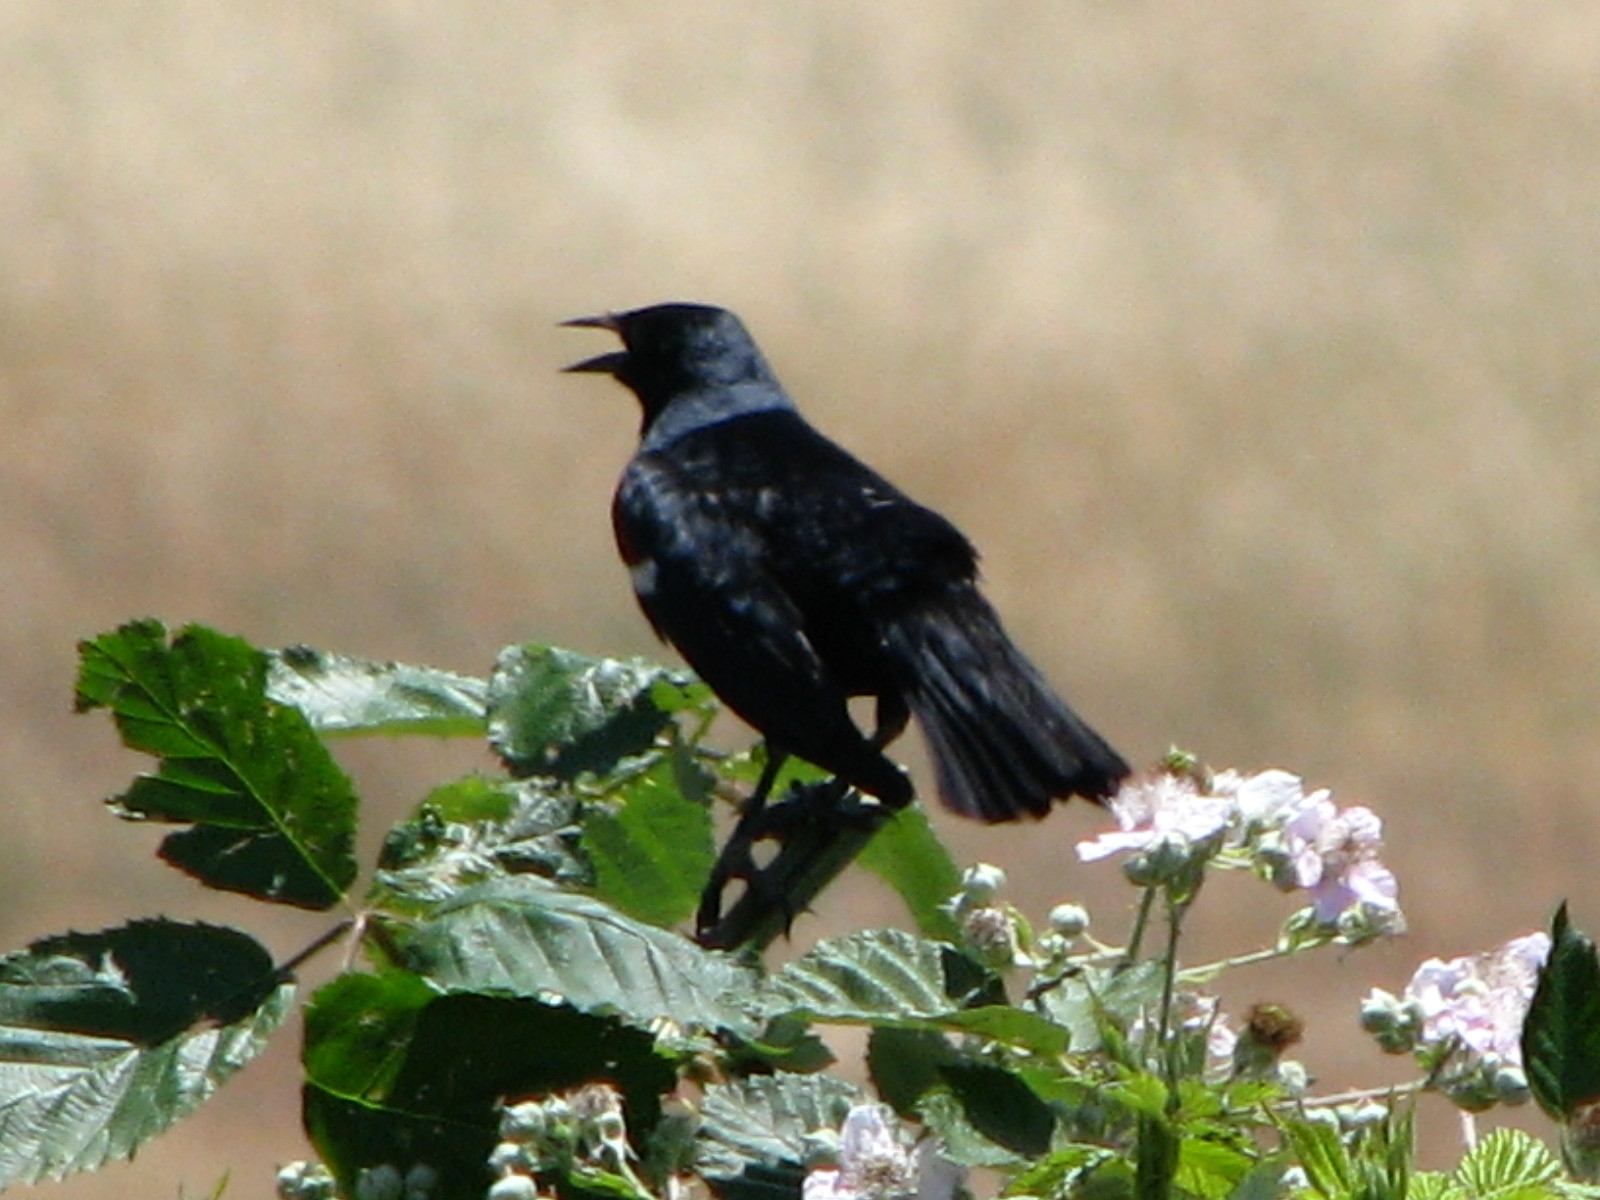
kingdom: Animalia
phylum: Chordata
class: Aves
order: Passeriformes
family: Icteridae
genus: Agelaius
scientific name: Agelaius tricolor
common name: Tricolored blackbird
